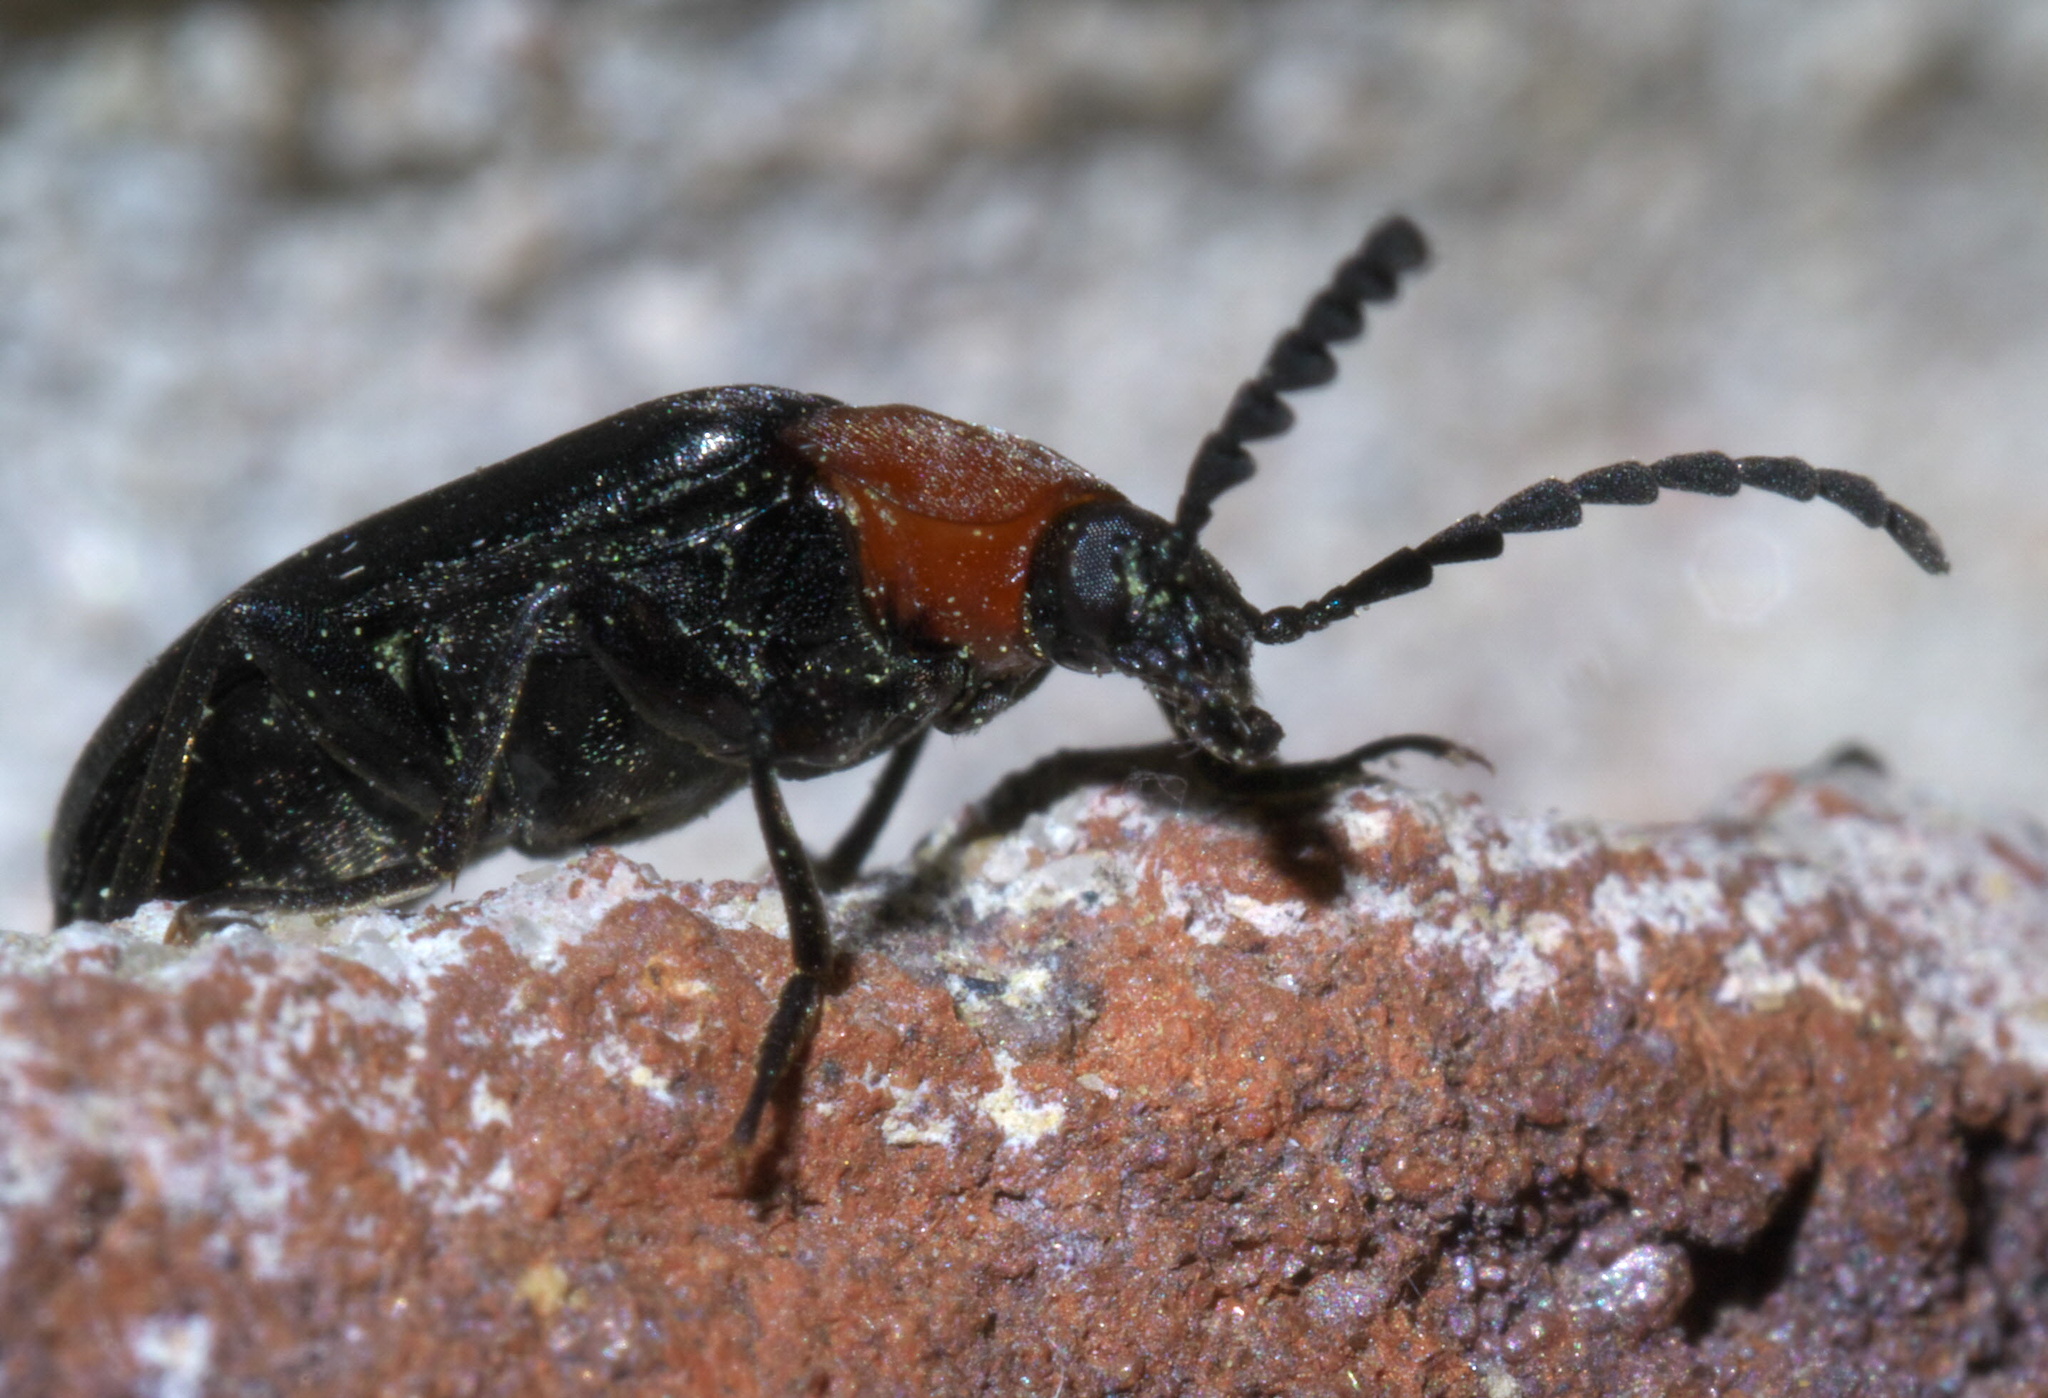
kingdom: Animalia
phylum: Arthropoda
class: Insecta
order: Coleoptera
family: Tenebrionidae
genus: Chromatia
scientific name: Chromatia amoena
